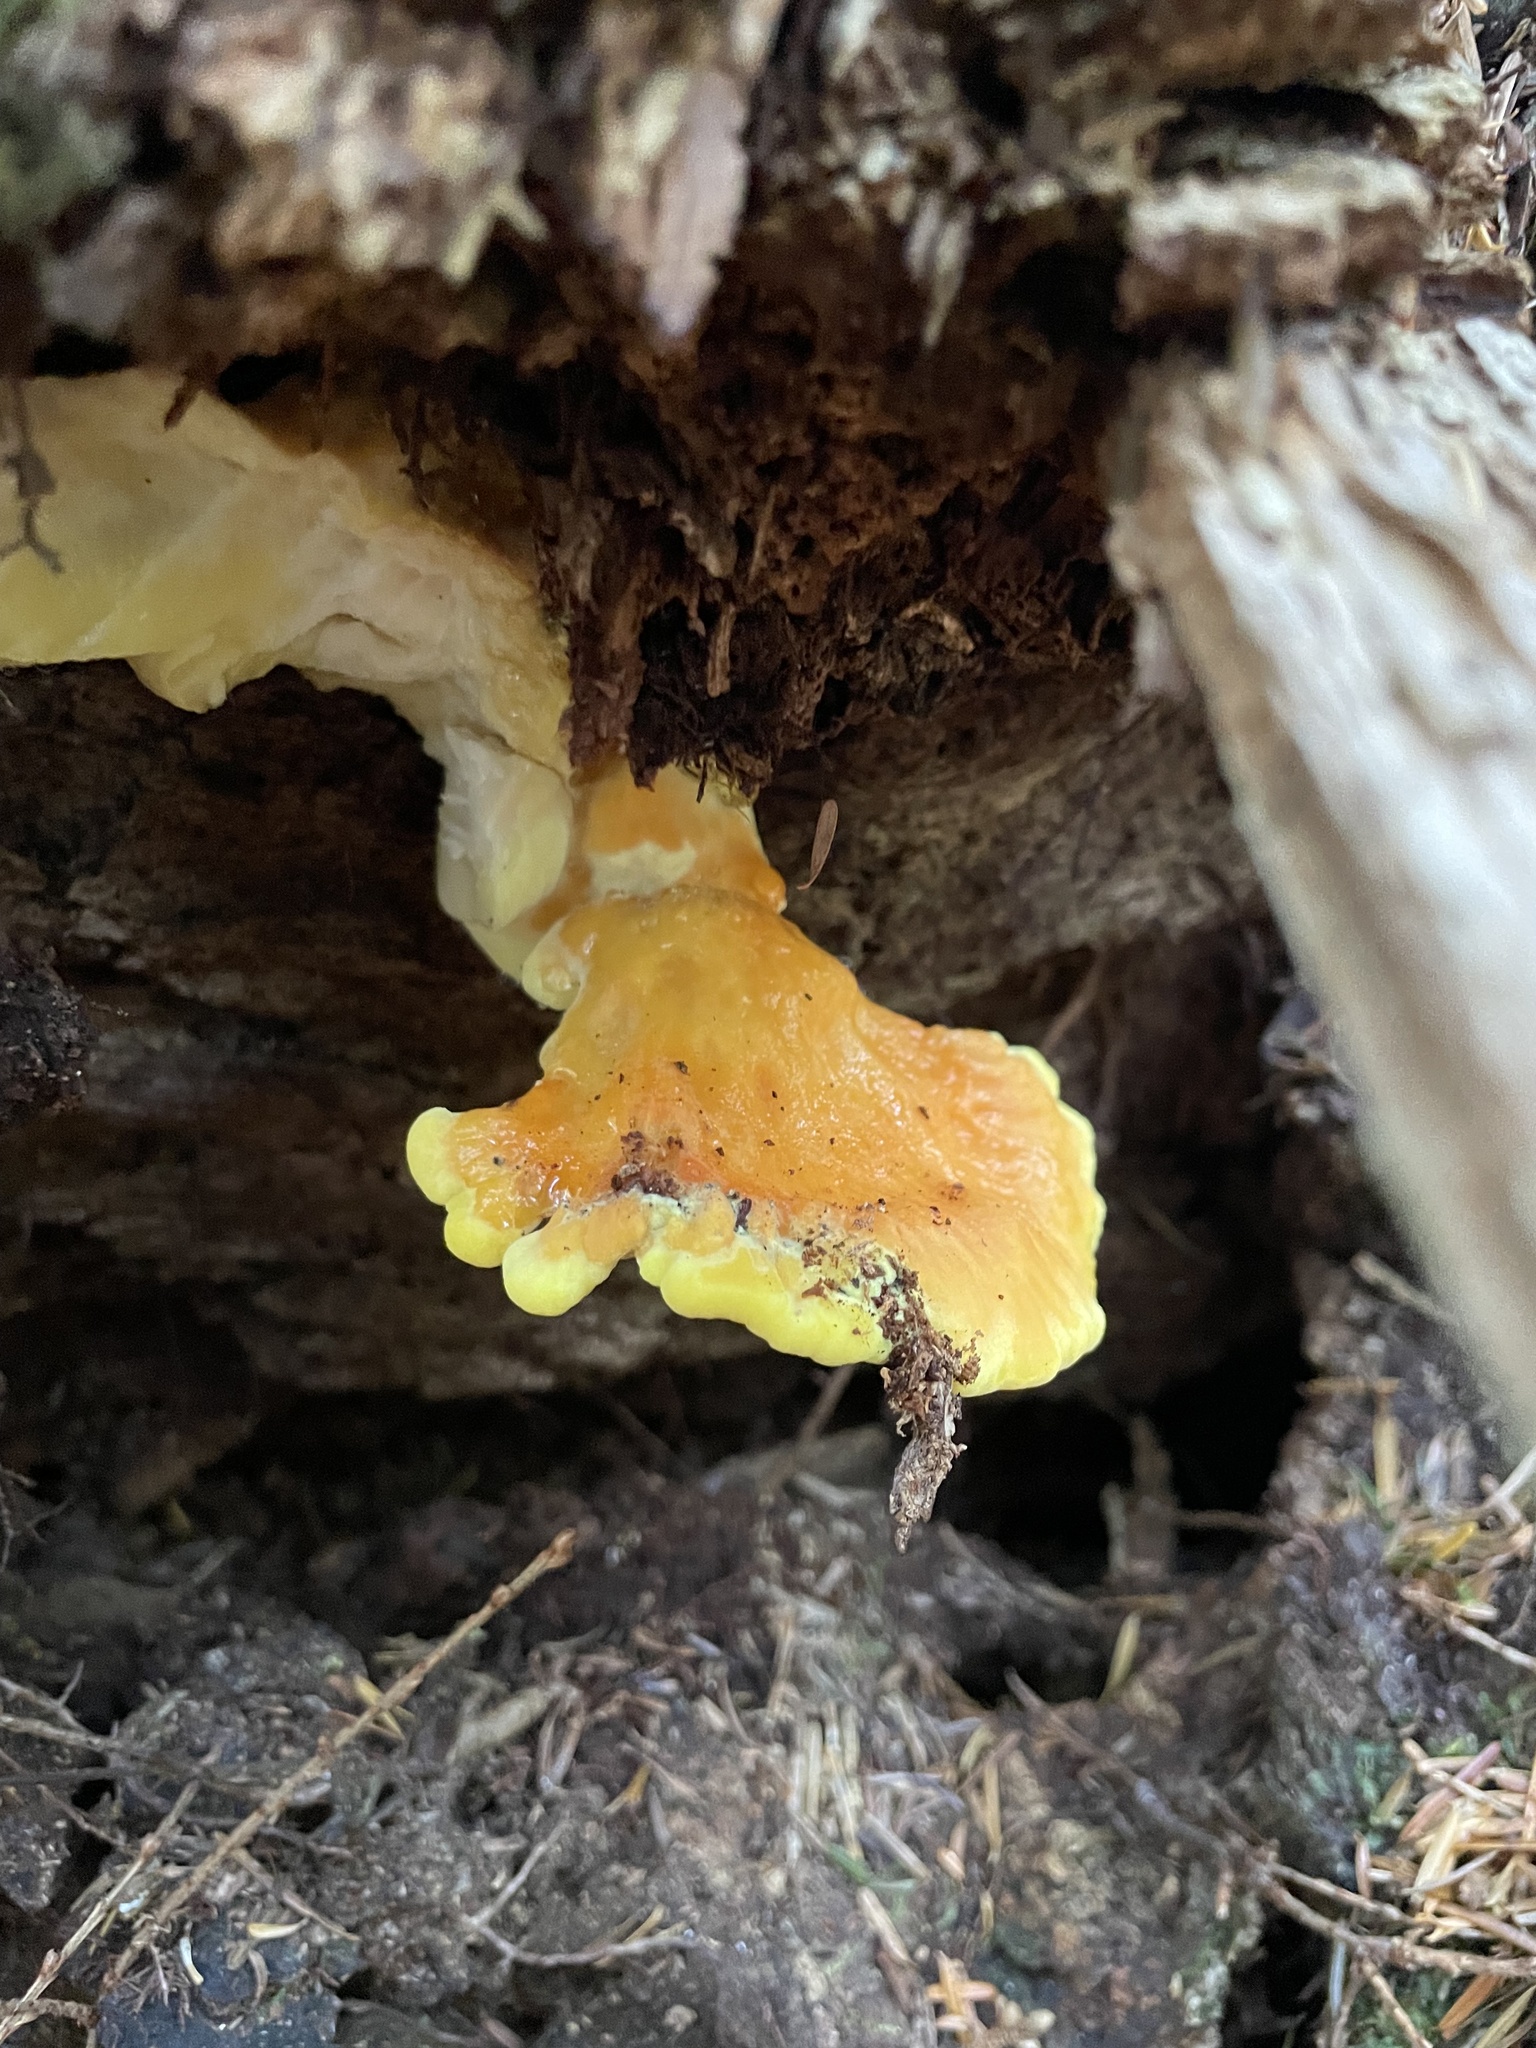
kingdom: Fungi
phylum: Basidiomycota
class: Agaricomycetes
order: Polyporales
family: Laetiporaceae
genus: Laetiporus
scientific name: Laetiporus conifericola
